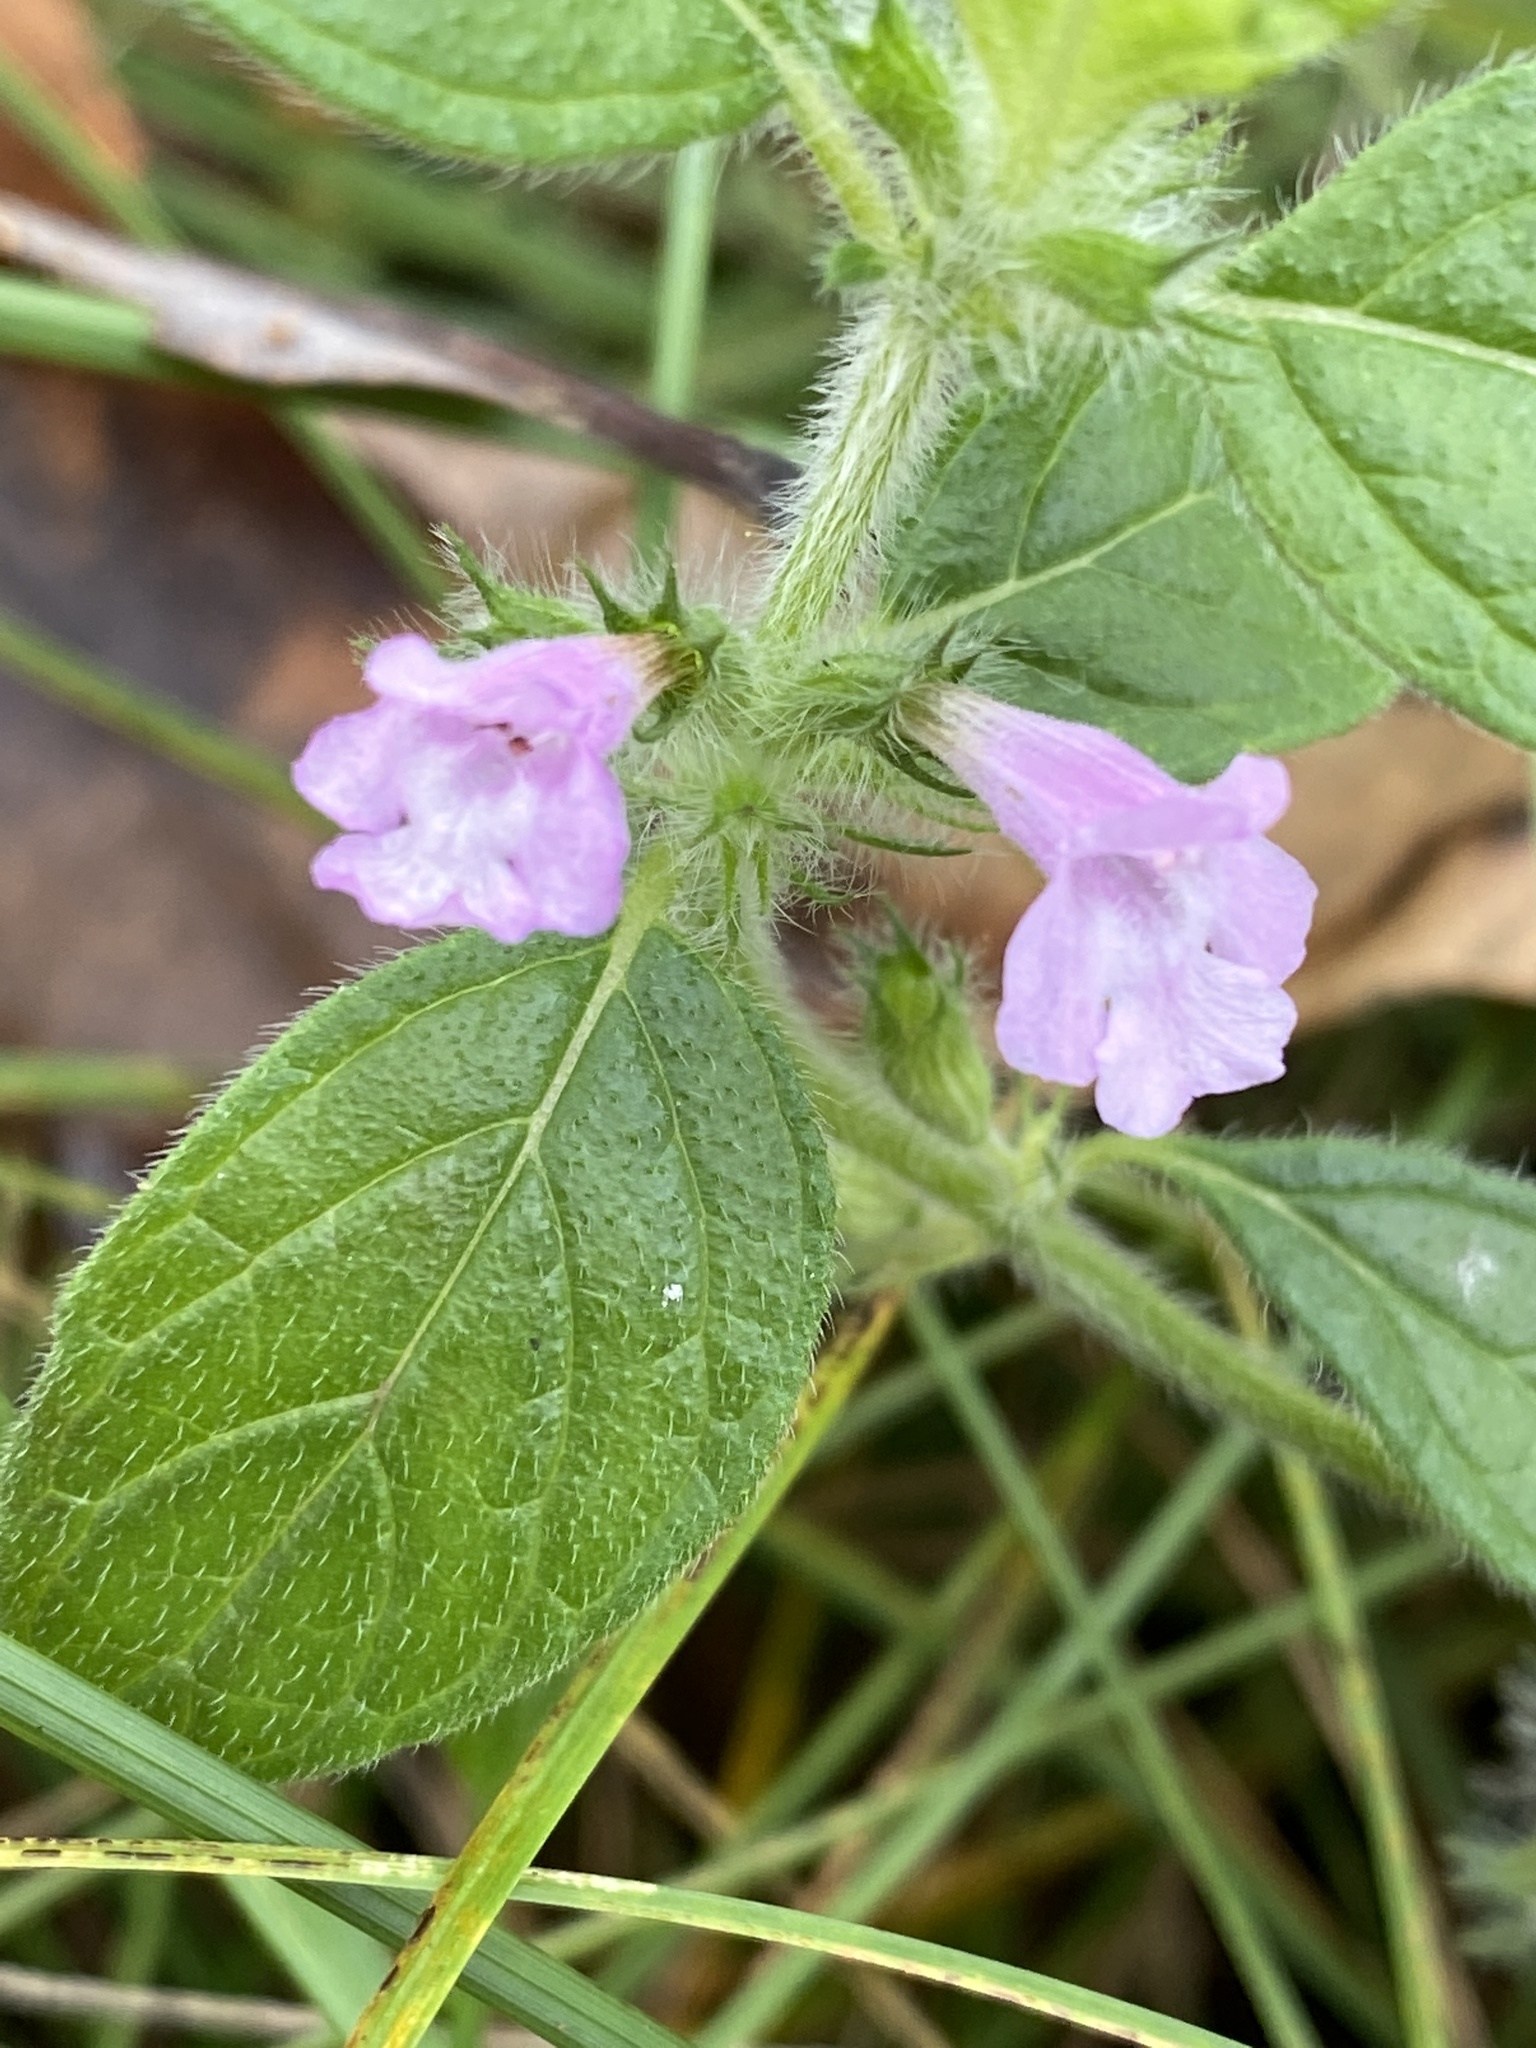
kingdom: Plantae
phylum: Tracheophyta
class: Magnoliopsida
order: Lamiales
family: Lamiaceae
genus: Clinopodium
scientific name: Clinopodium vulgare
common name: Wild basil
